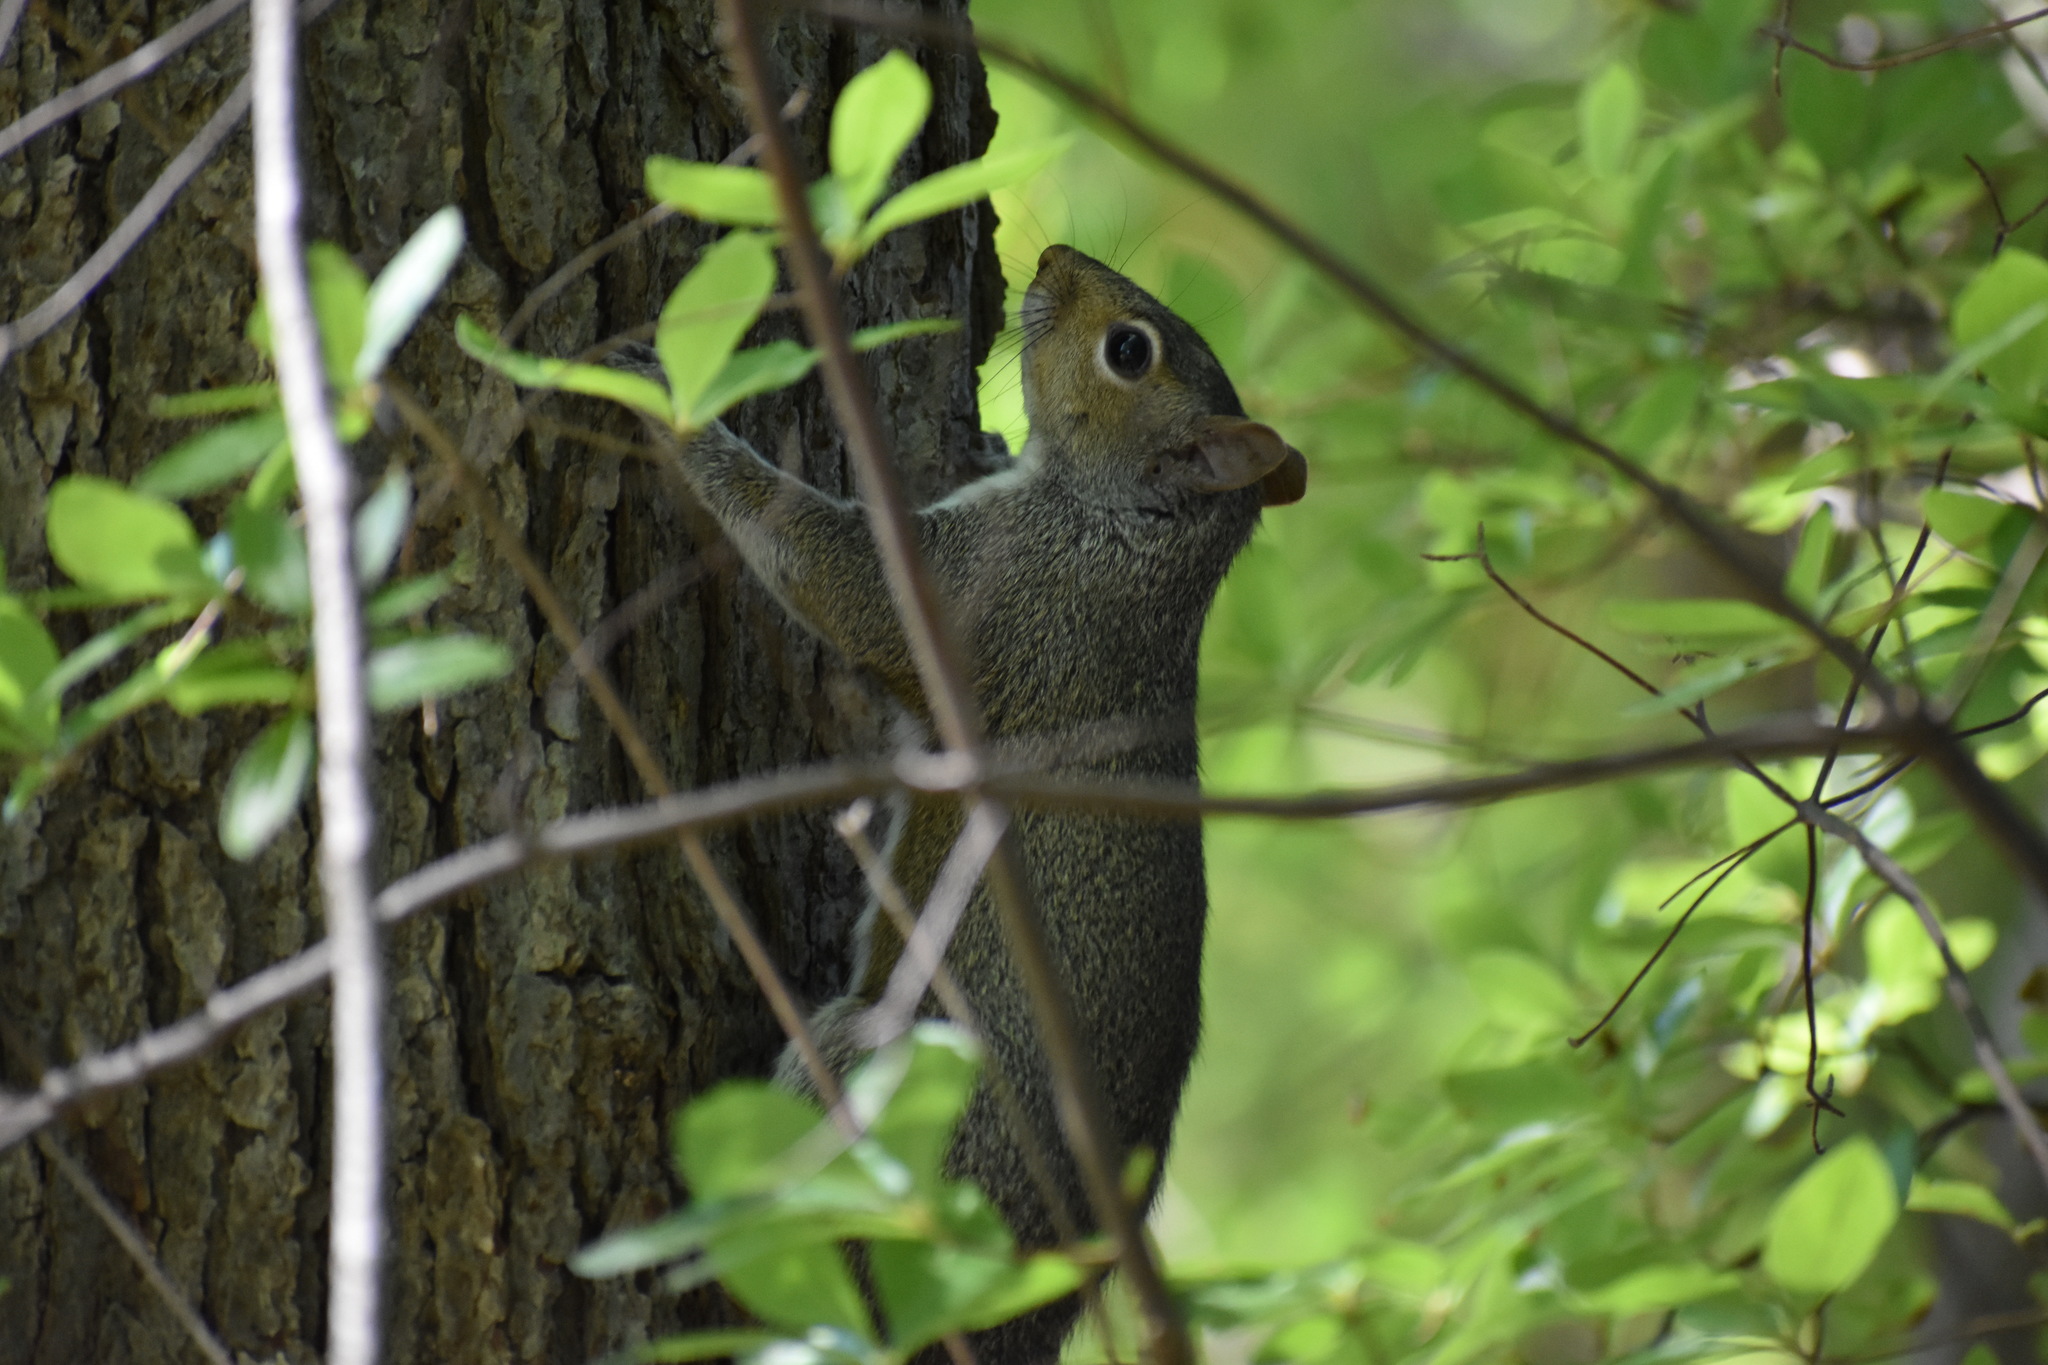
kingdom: Animalia
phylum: Chordata
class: Mammalia
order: Rodentia
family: Sciuridae
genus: Sciurus
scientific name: Sciurus carolinensis
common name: Eastern gray squirrel
